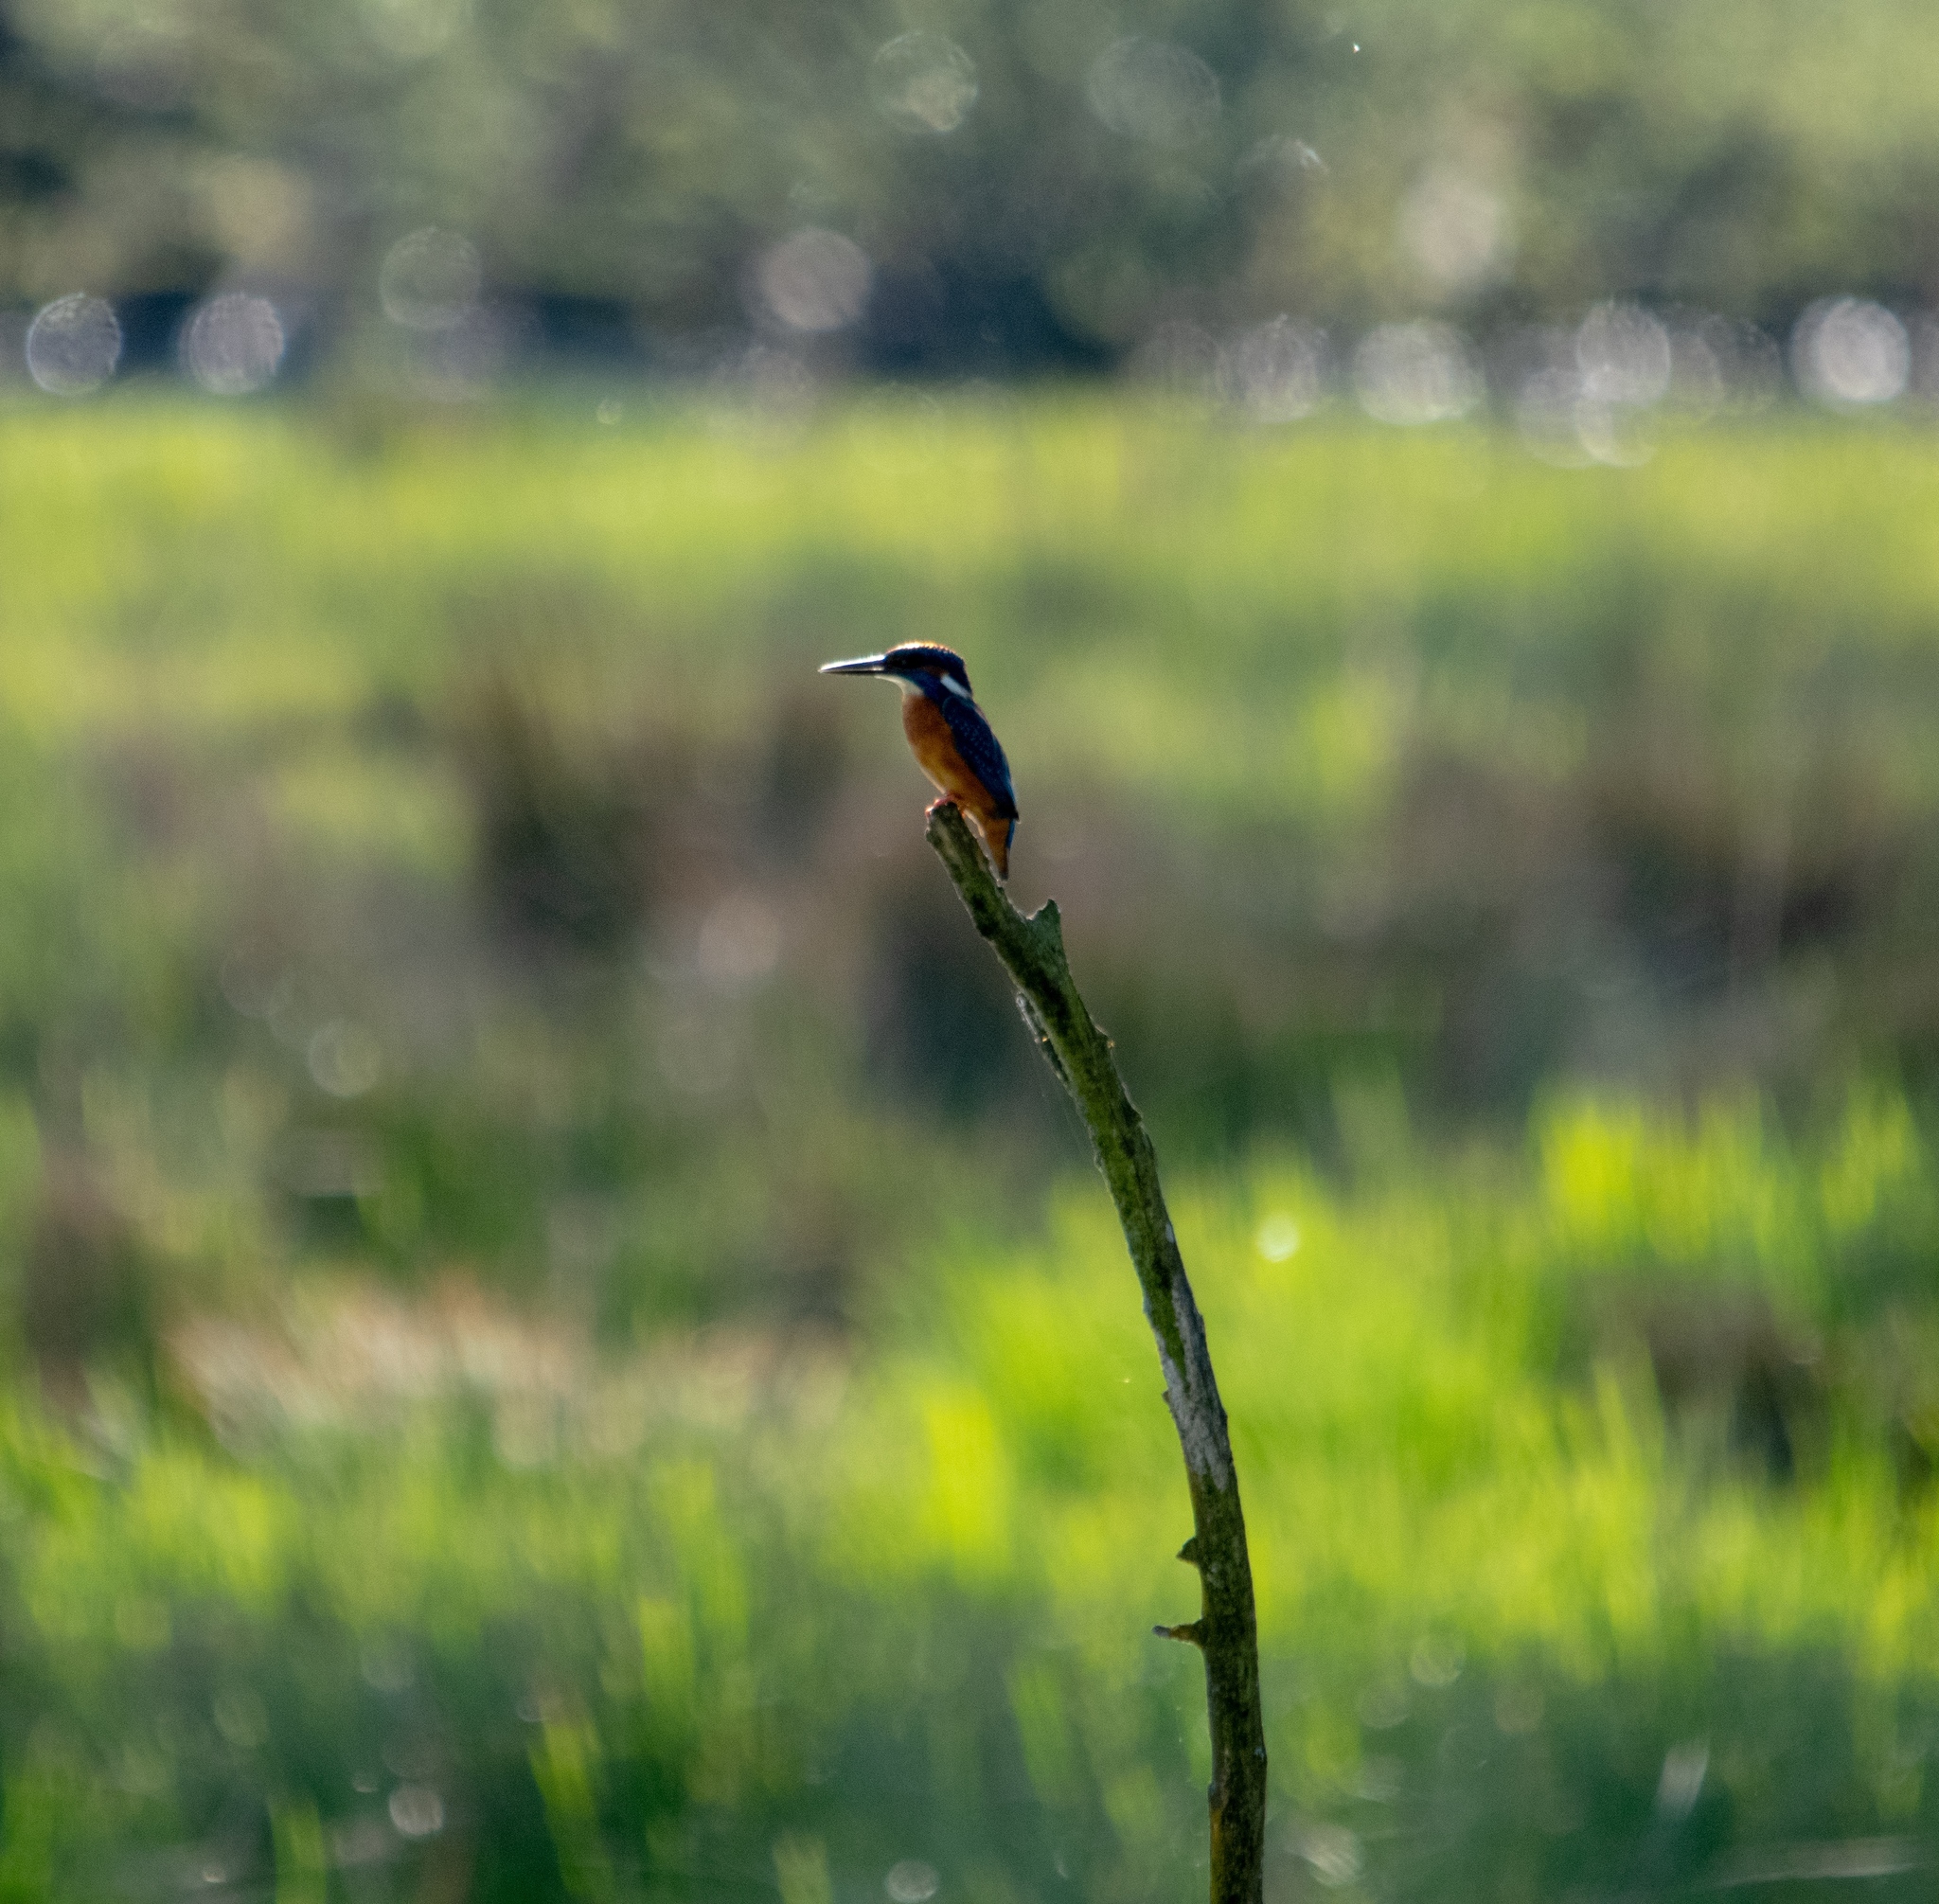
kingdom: Animalia
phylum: Chordata
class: Aves
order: Coraciiformes
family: Alcedinidae
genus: Alcedo
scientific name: Alcedo atthis
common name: Common kingfisher
